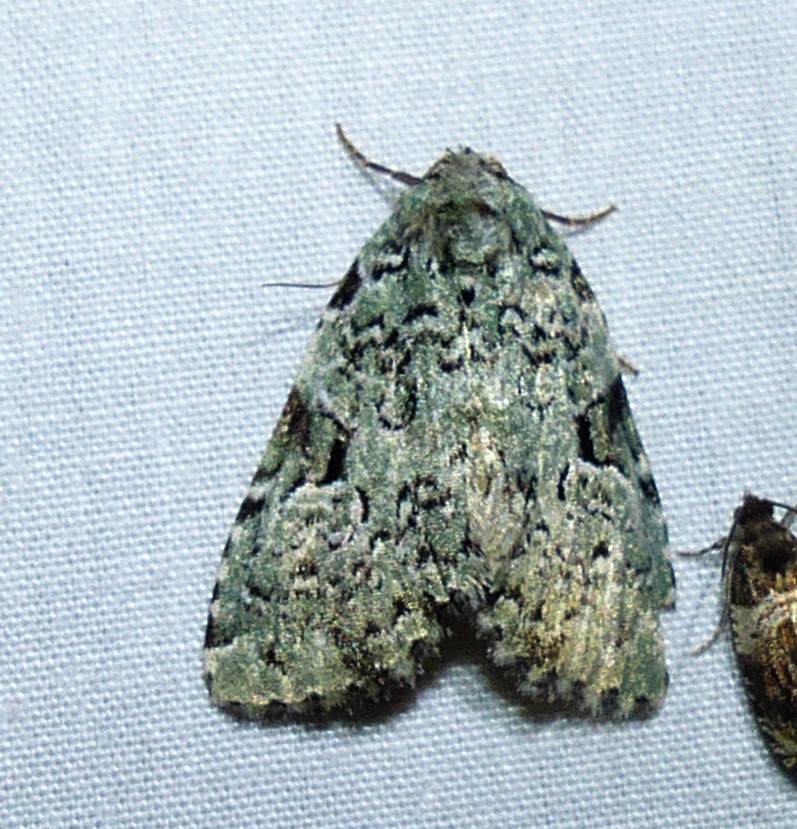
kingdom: Animalia
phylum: Arthropoda
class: Insecta
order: Lepidoptera
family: Noctuidae
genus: Leuconycta
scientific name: Leuconycta diphteroides
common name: Green leuconycta moth
